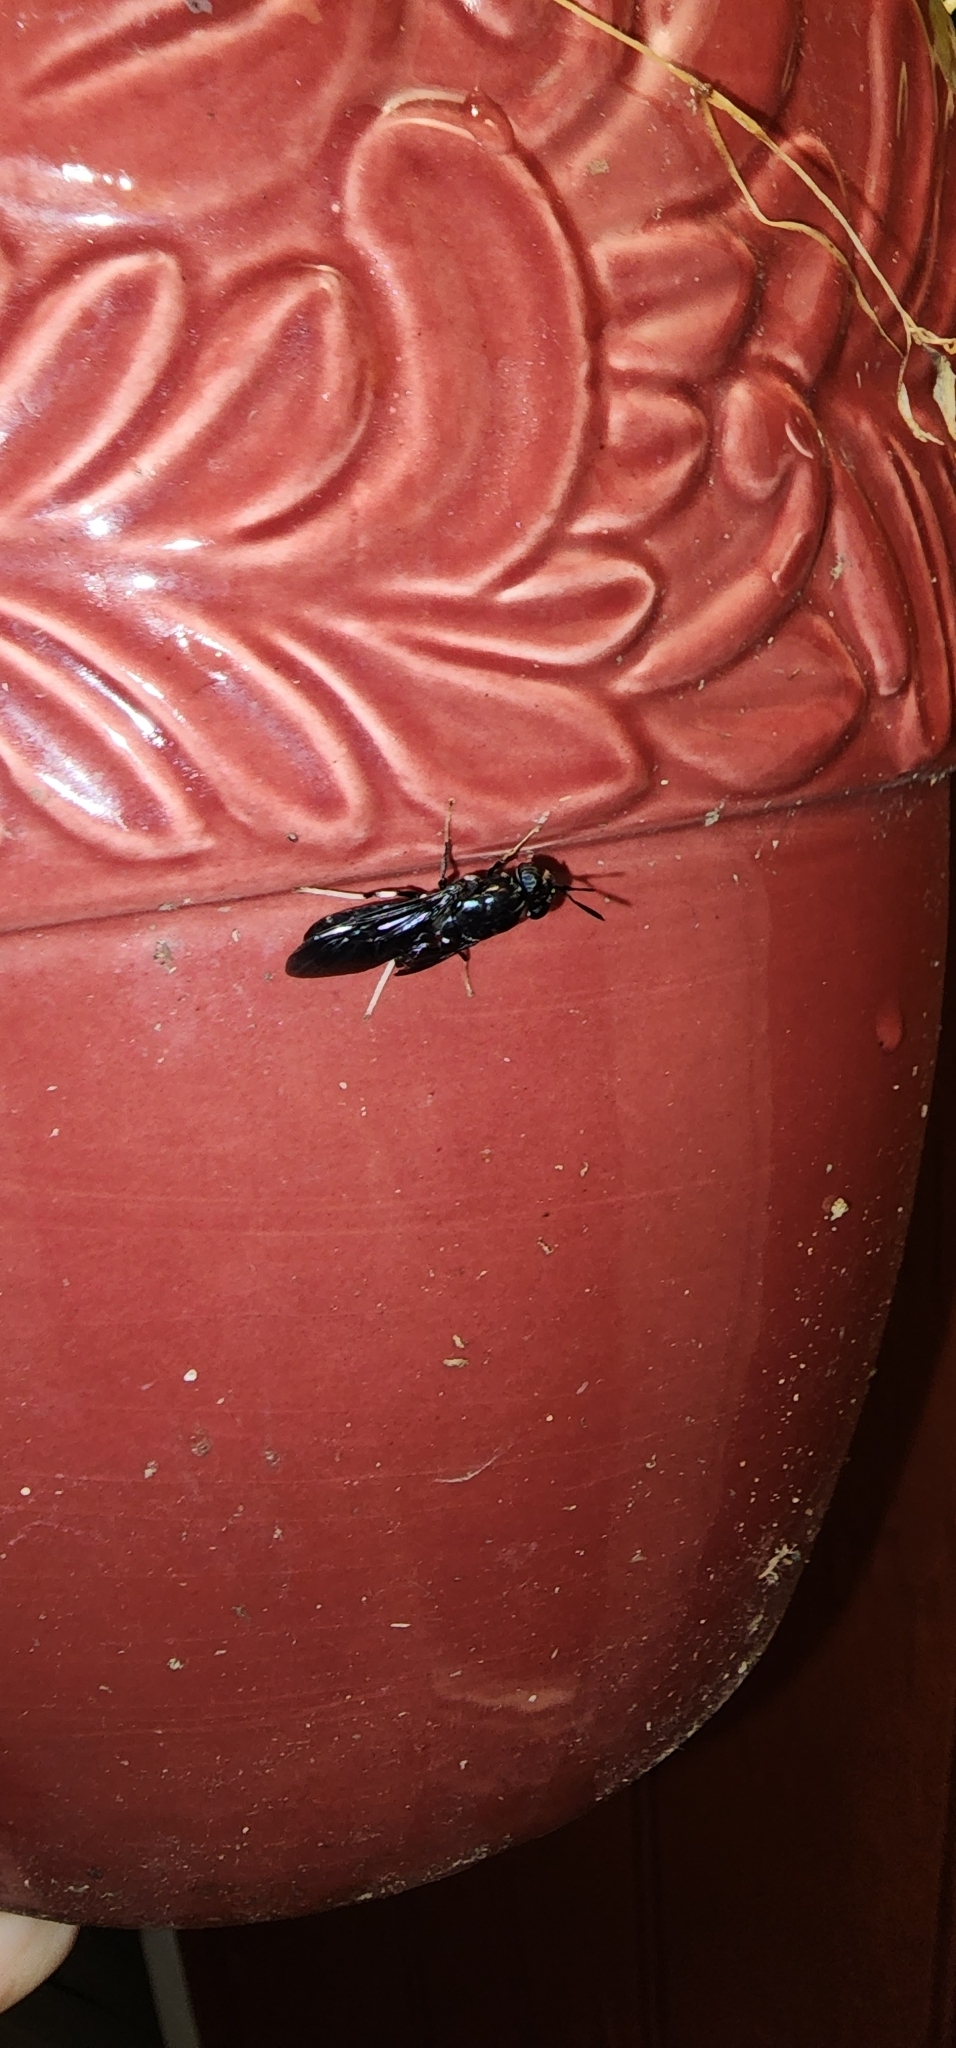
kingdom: Animalia
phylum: Arthropoda
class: Insecta
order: Diptera
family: Stratiomyidae
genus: Hermetia
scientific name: Hermetia illucens
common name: Black soldier fly
